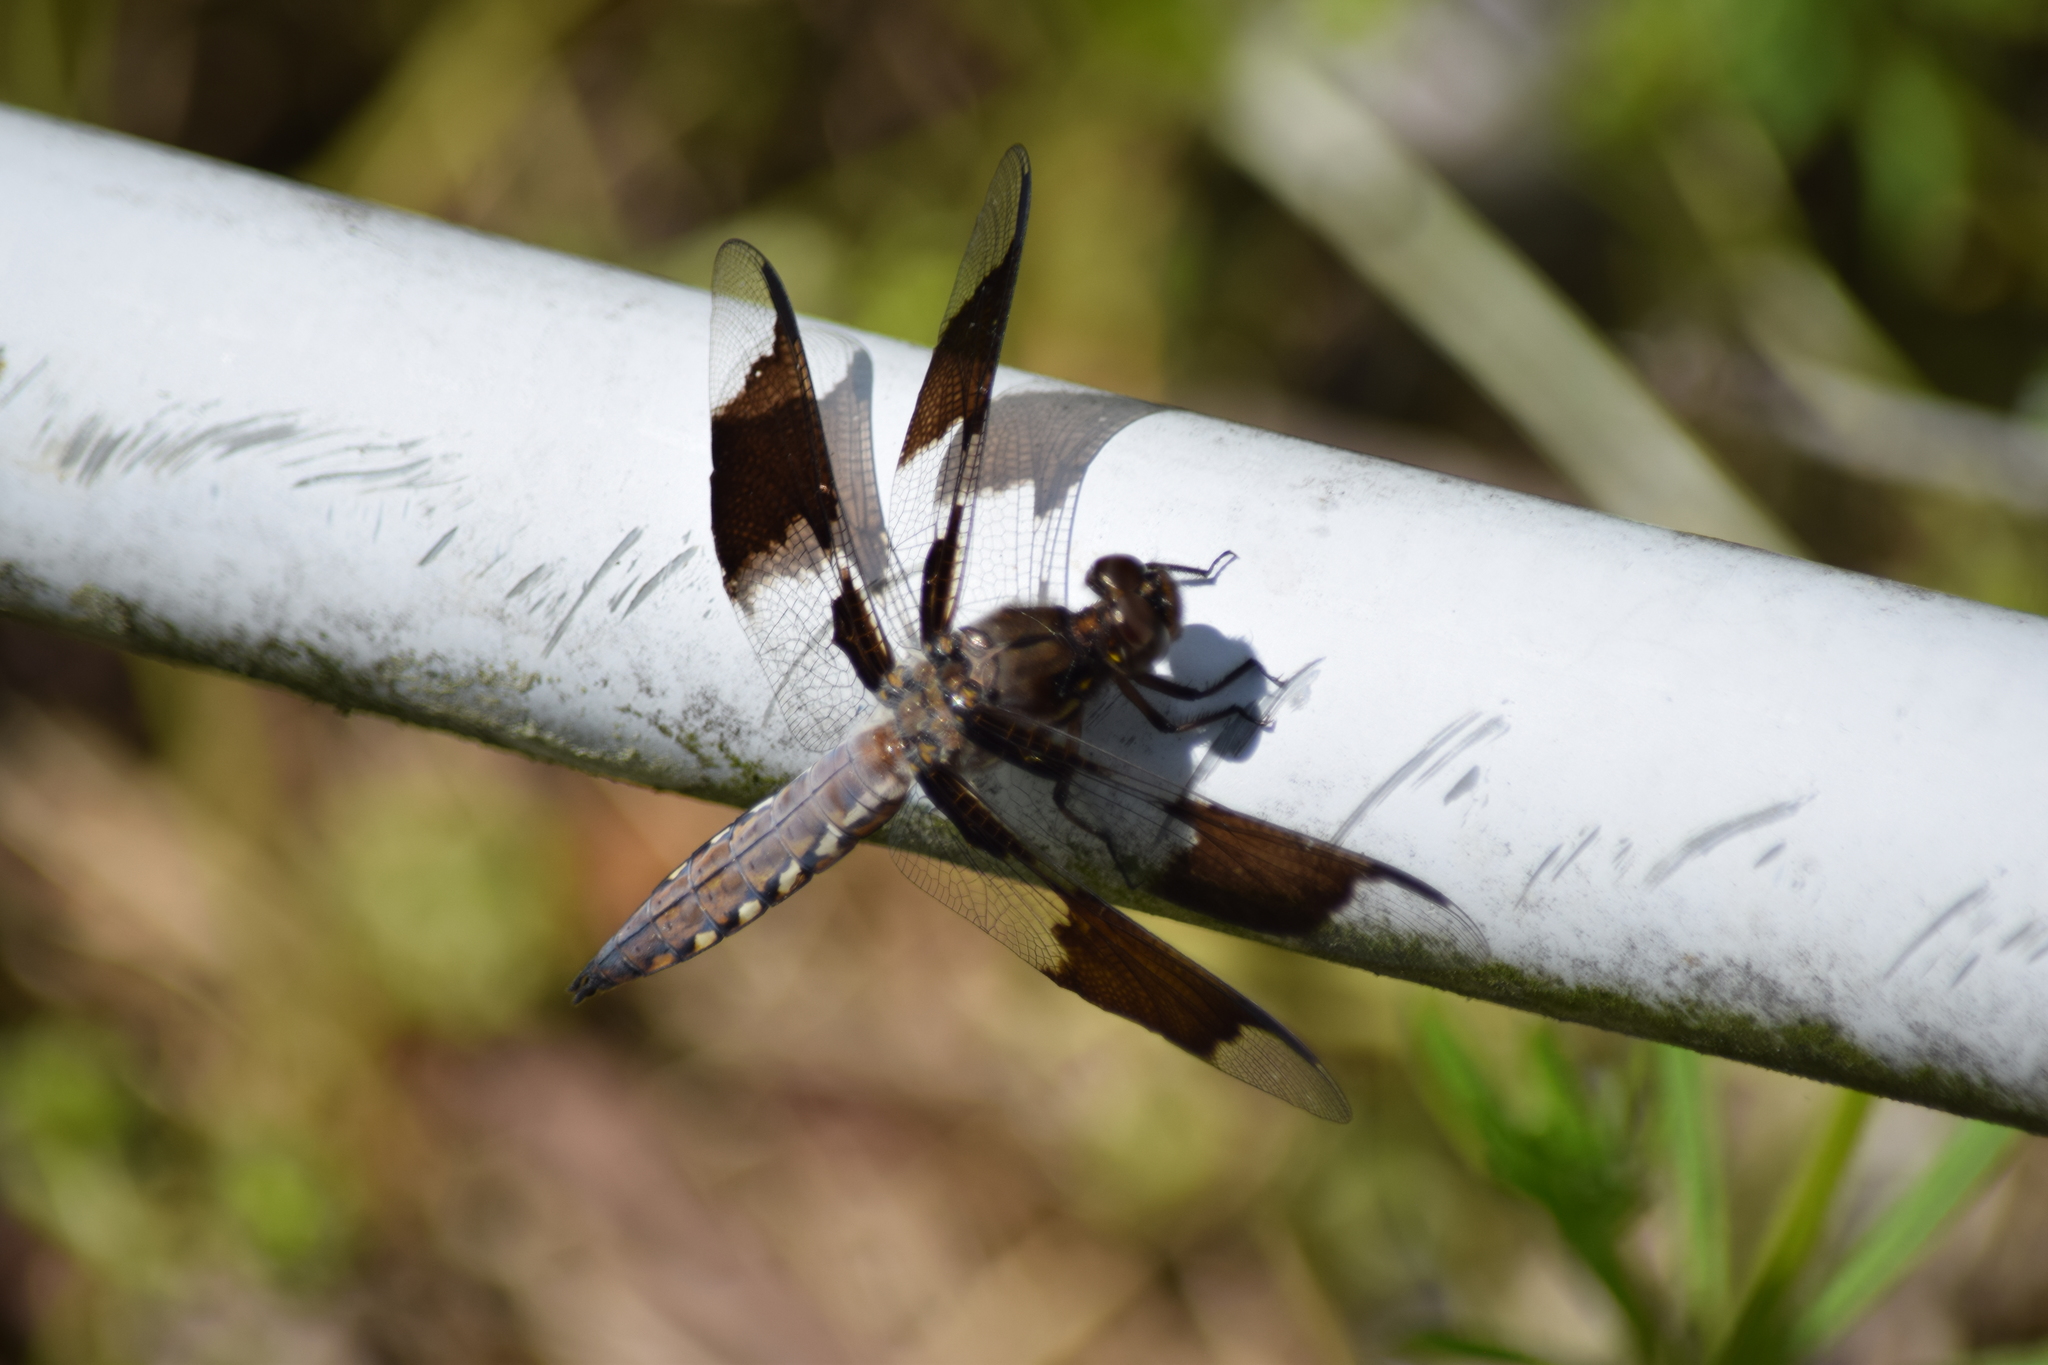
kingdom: Animalia
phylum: Arthropoda
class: Insecta
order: Odonata
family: Libellulidae
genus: Plathemis
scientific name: Plathemis lydia
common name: Common whitetail
